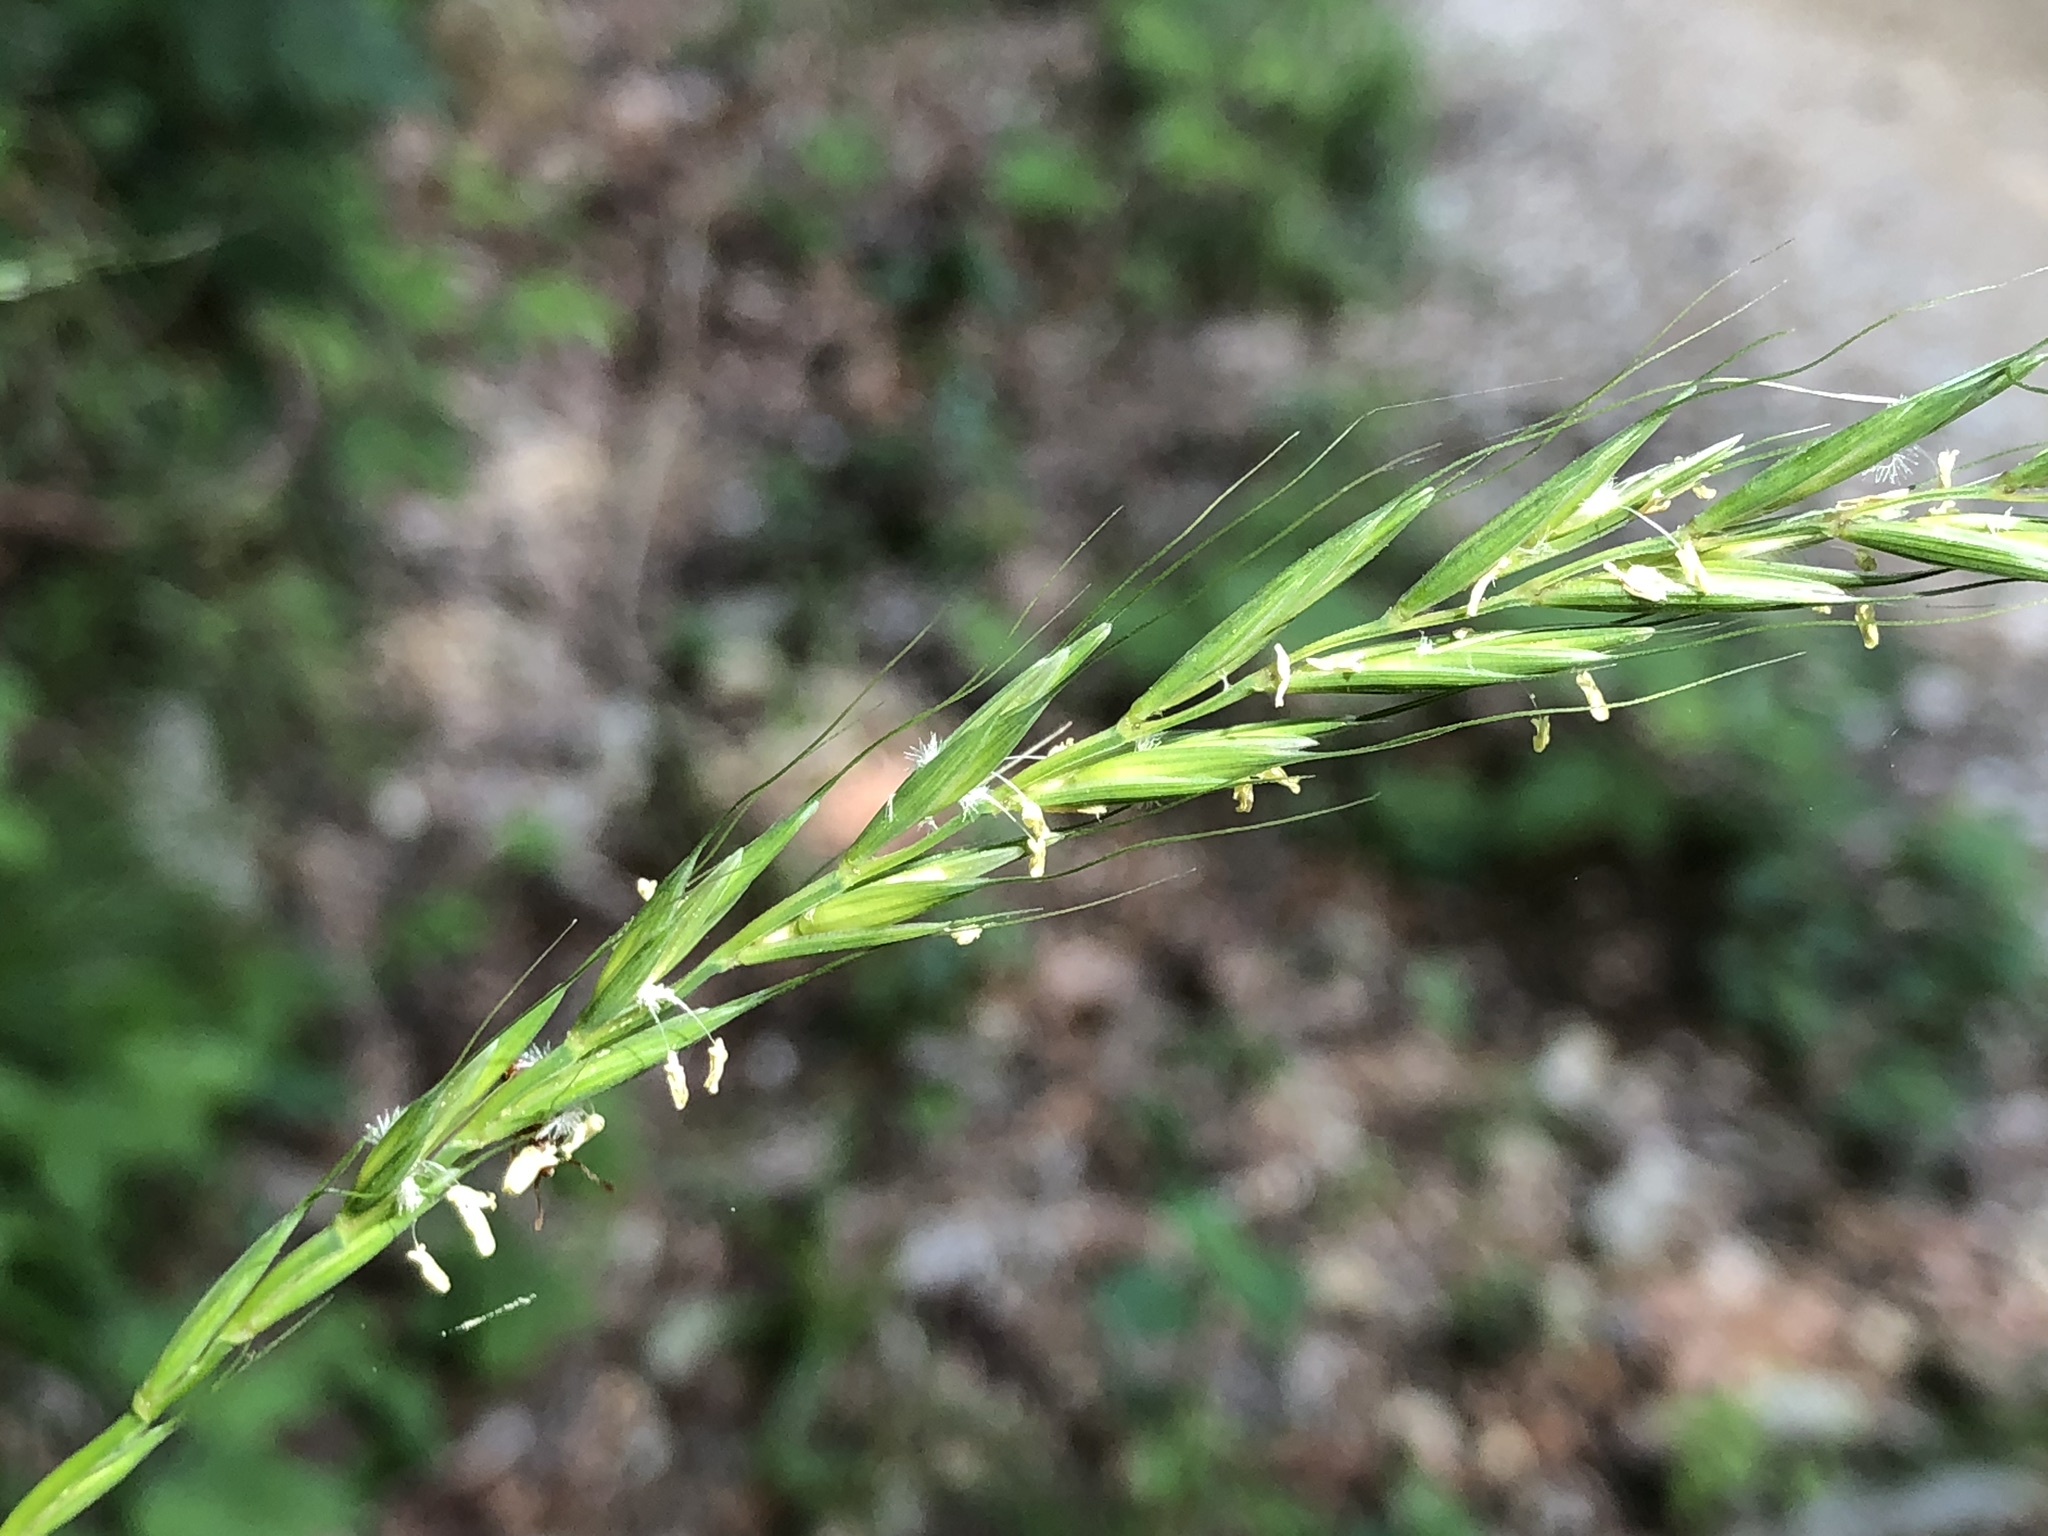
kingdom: Plantae
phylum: Tracheophyta
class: Liliopsida
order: Poales
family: Poaceae
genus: Elymus
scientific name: Elymus caninus
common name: Bearded couch
